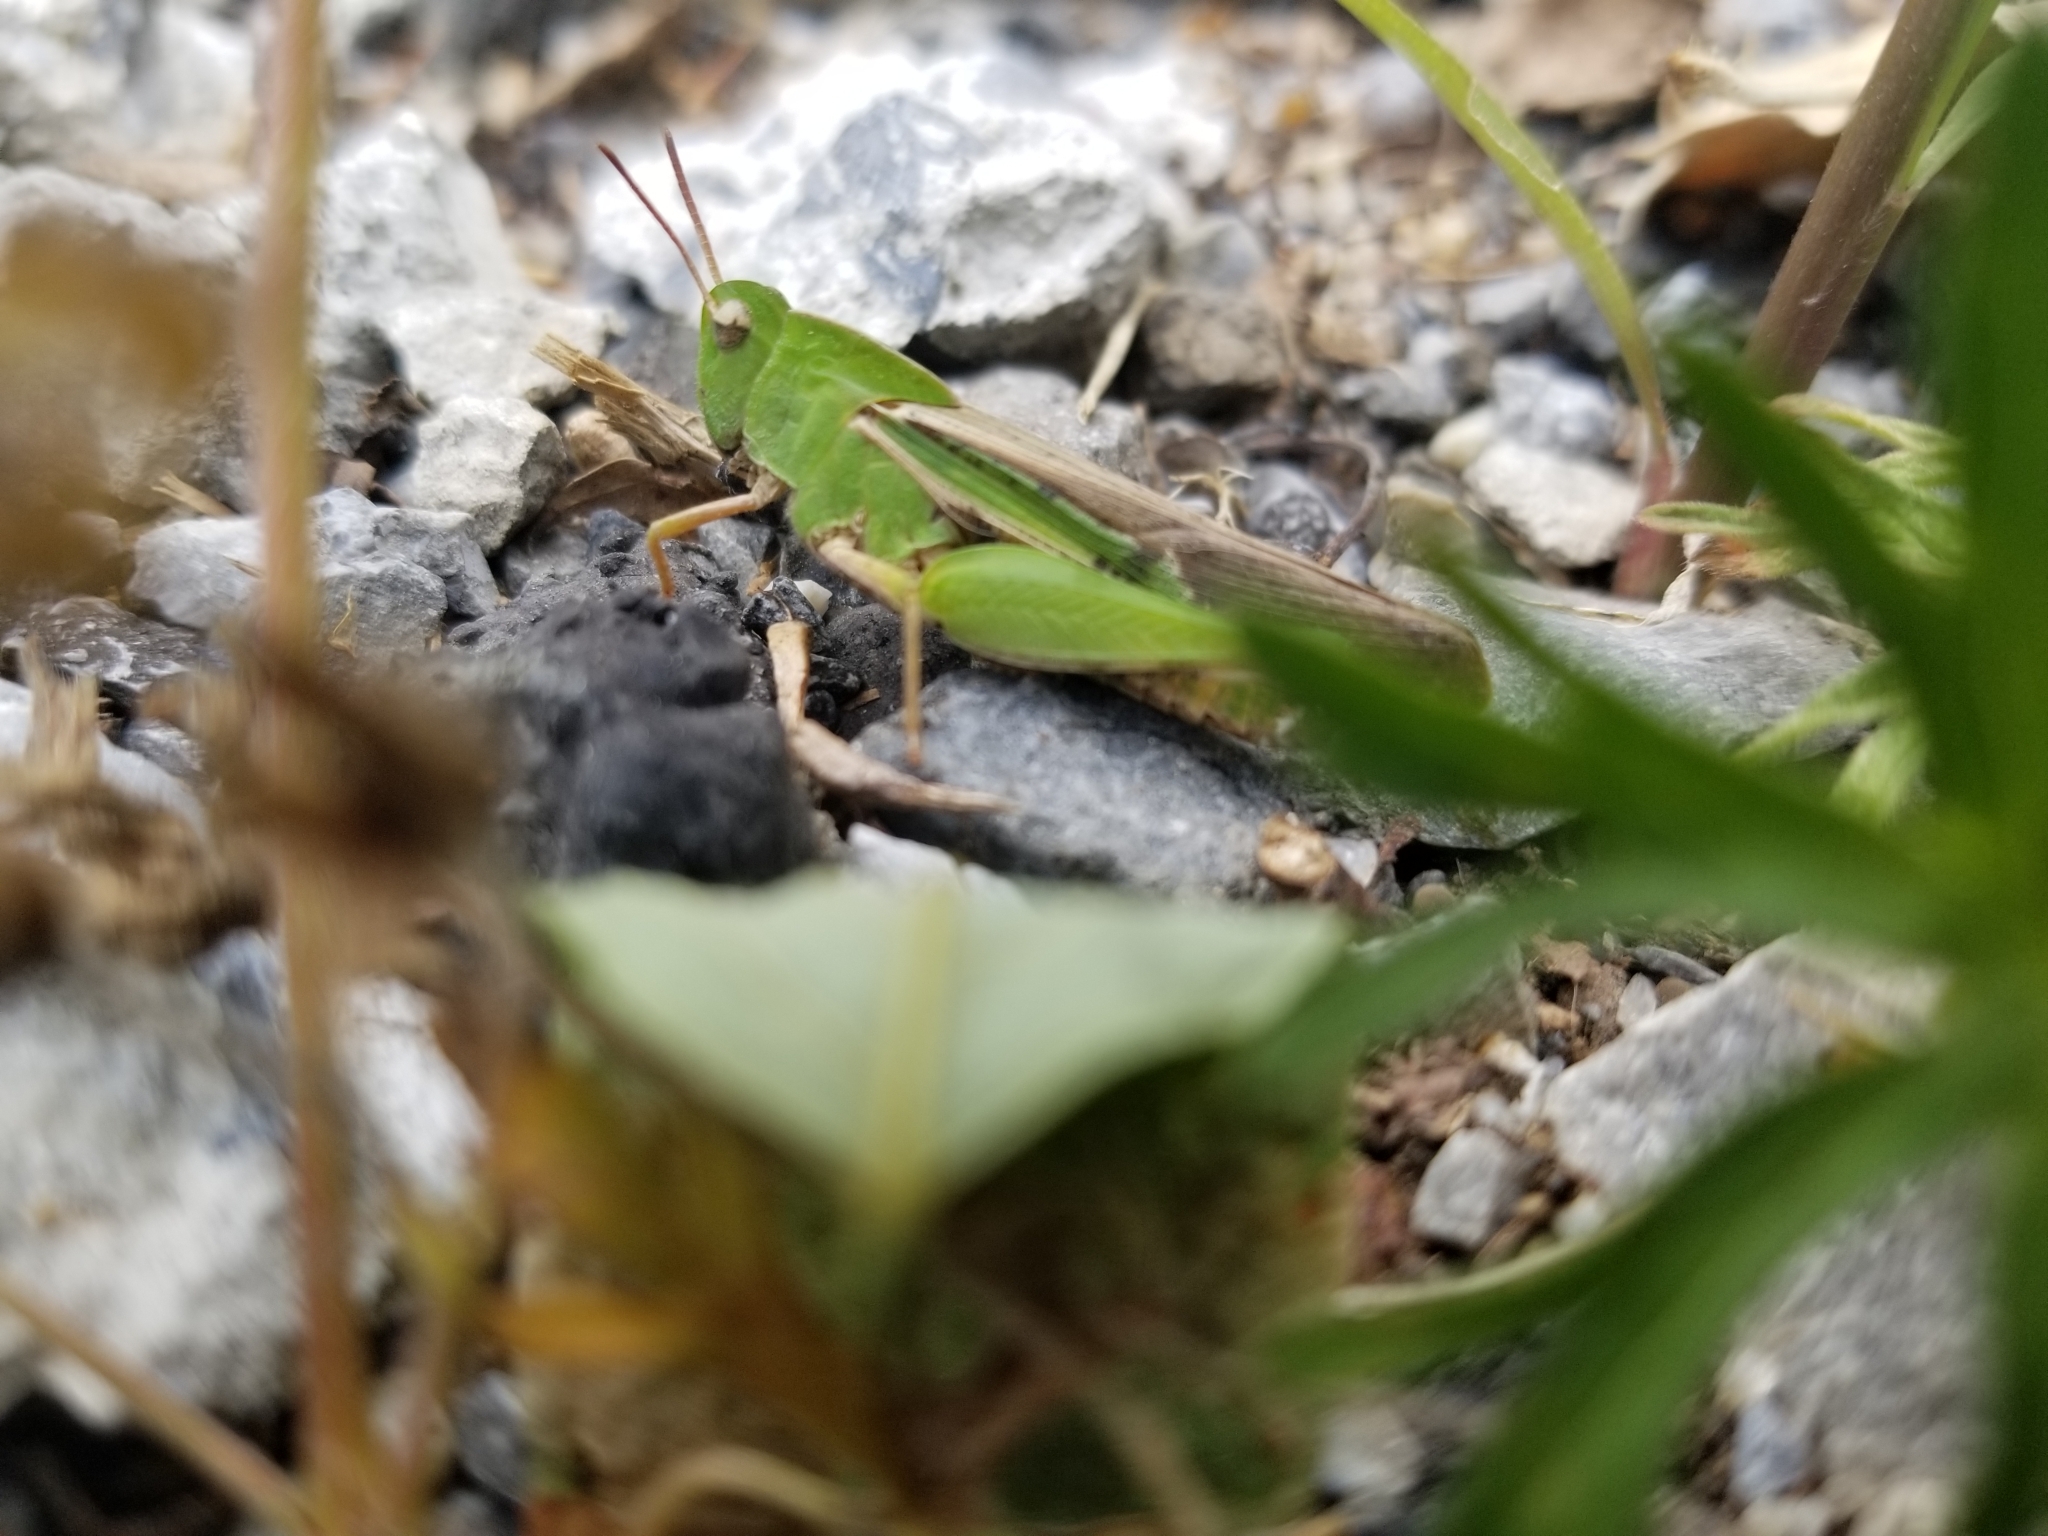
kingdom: Animalia
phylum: Arthropoda
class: Insecta
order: Orthoptera
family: Acrididae
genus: Chortophaga
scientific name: Chortophaga viridifasciata
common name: Green-striped grasshopper
